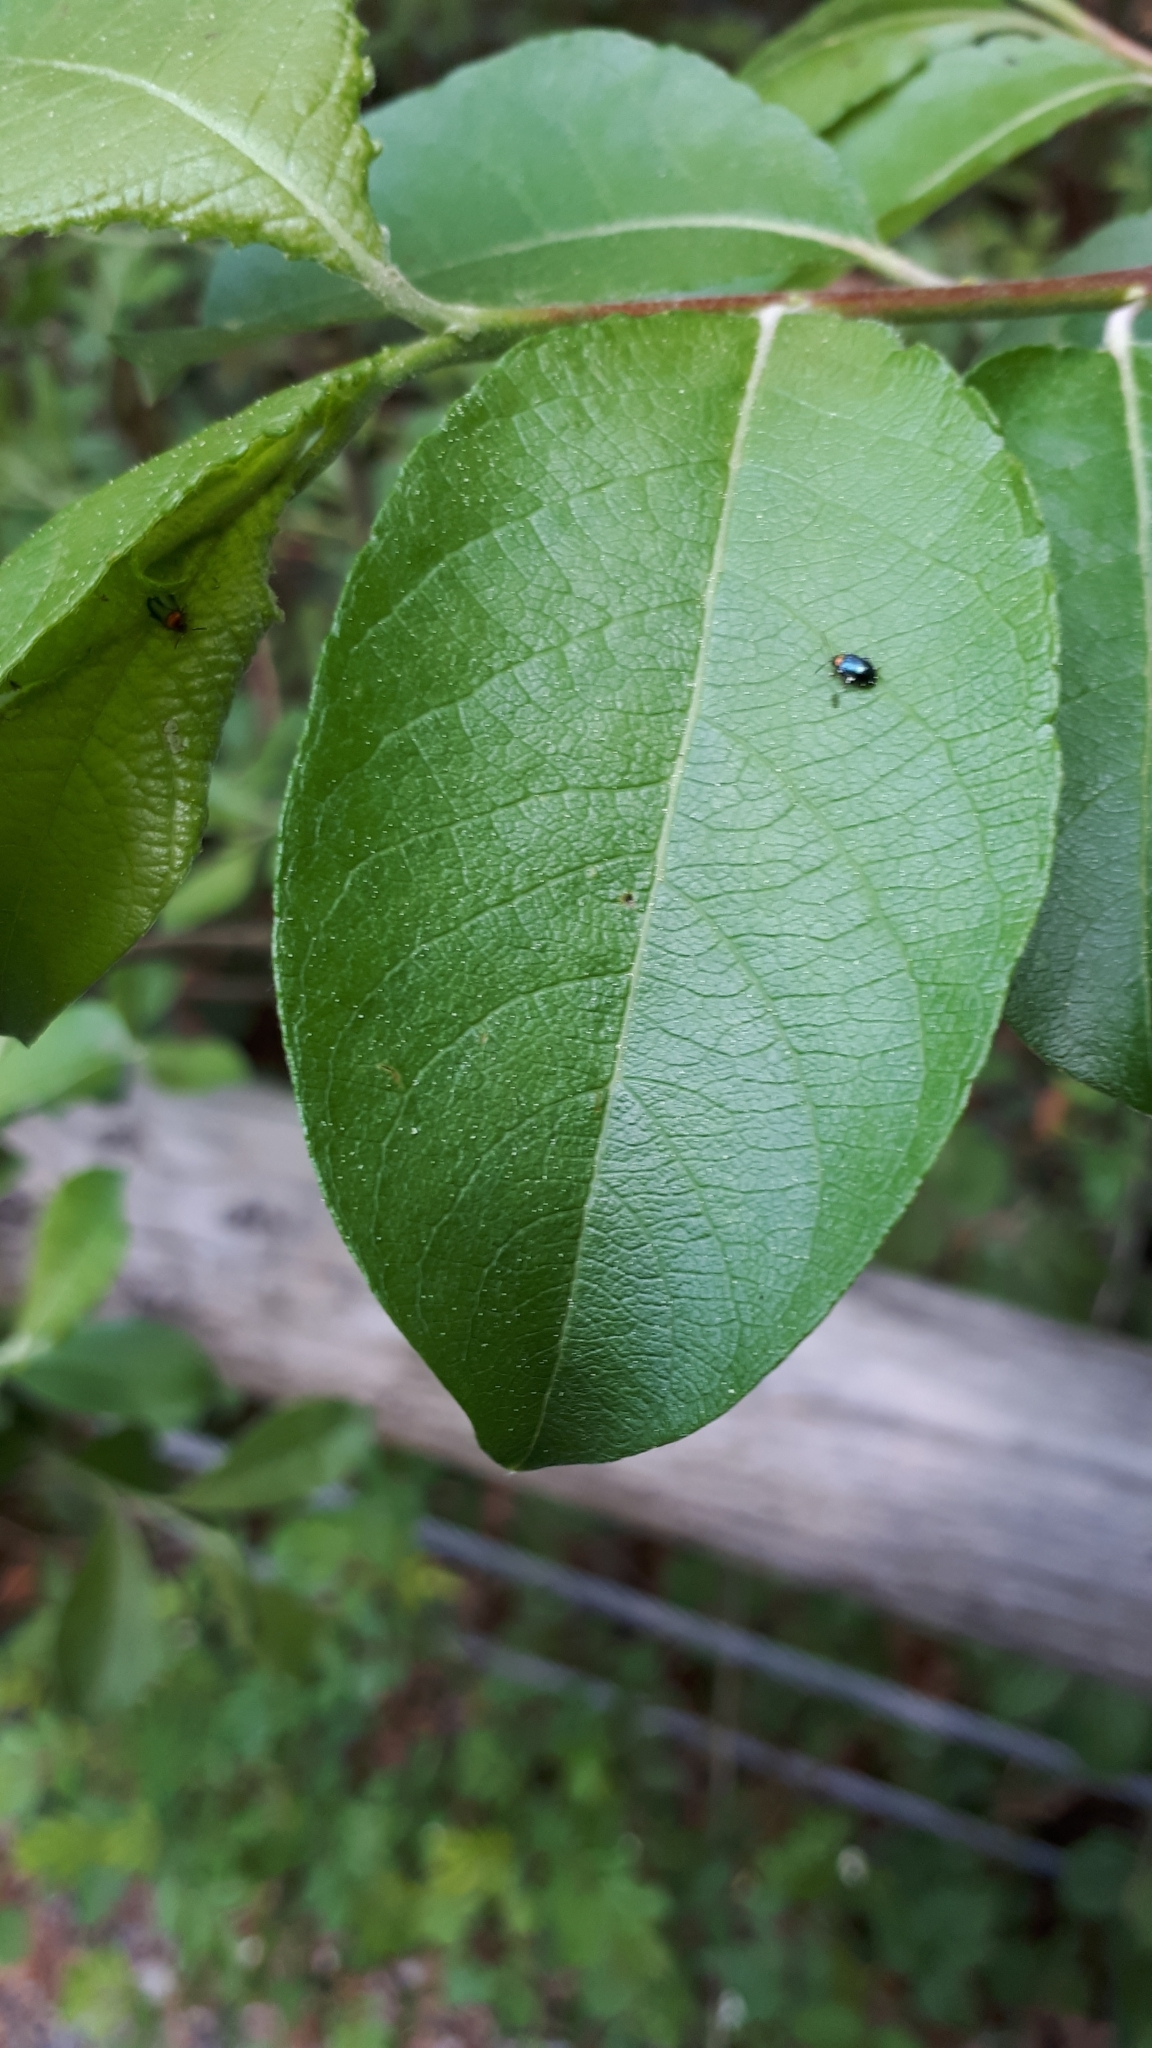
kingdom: Animalia
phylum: Arthropoda
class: Insecta
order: Coleoptera
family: Chrysomelidae
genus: Crepidodera
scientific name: Crepidodera aurata
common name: Willow flea beetle
